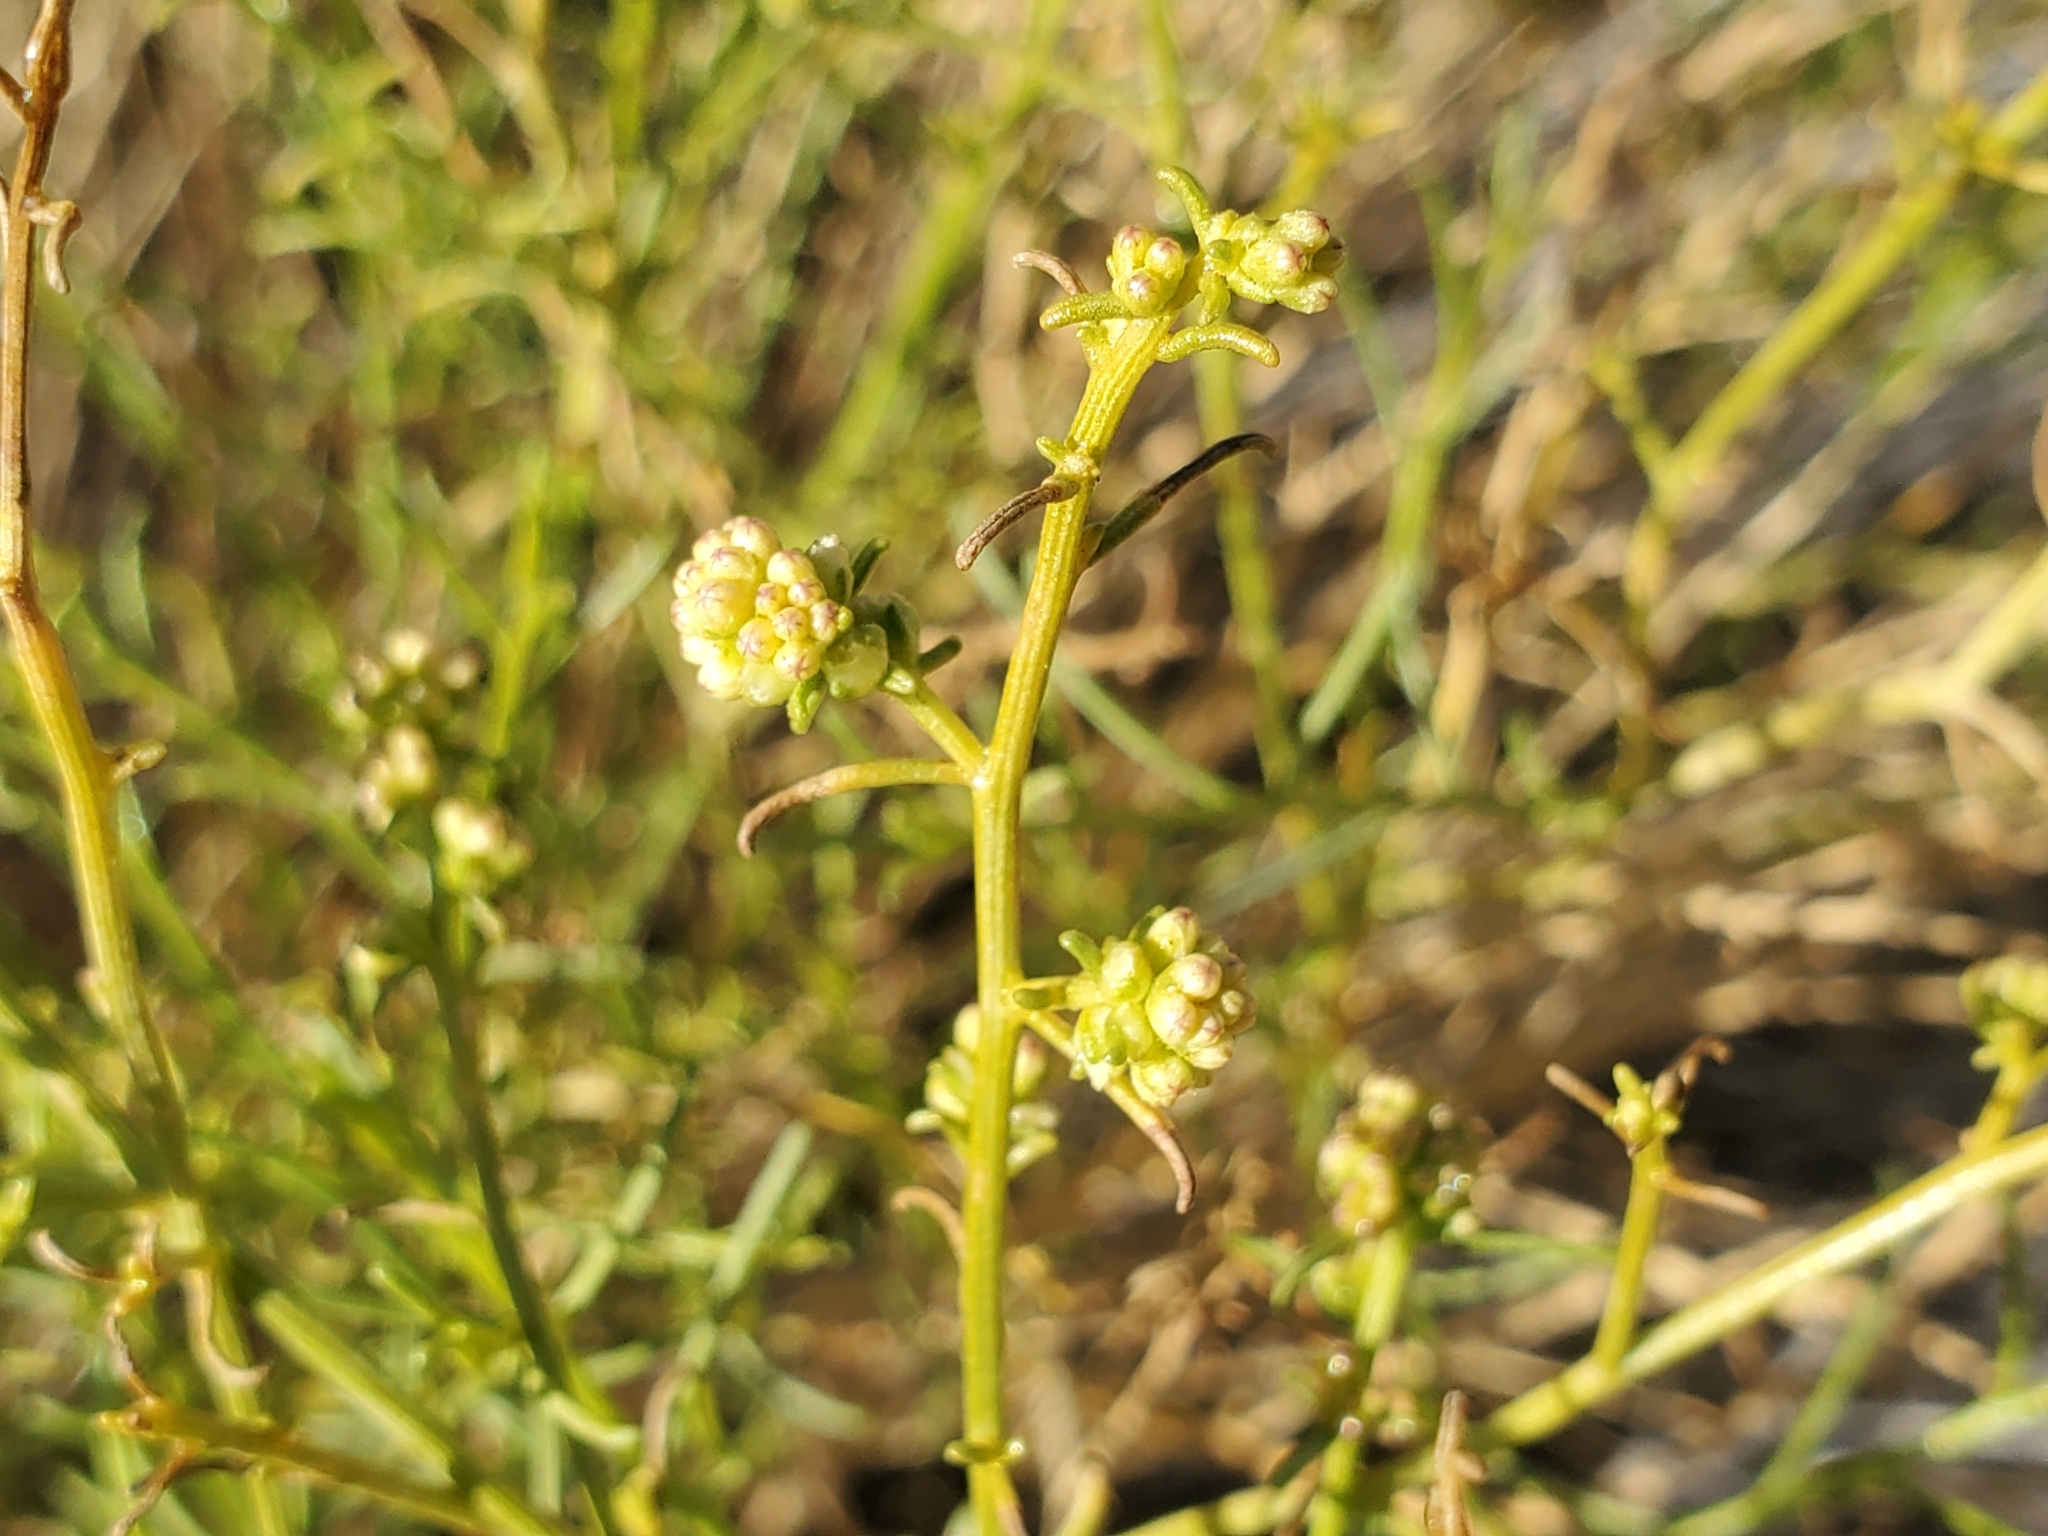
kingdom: Plantae
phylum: Tracheophyta
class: Magnoliopsida
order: Asterales
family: Asteraceae
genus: Ambrosia
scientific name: Ambrosia salsola
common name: Burrobrush
